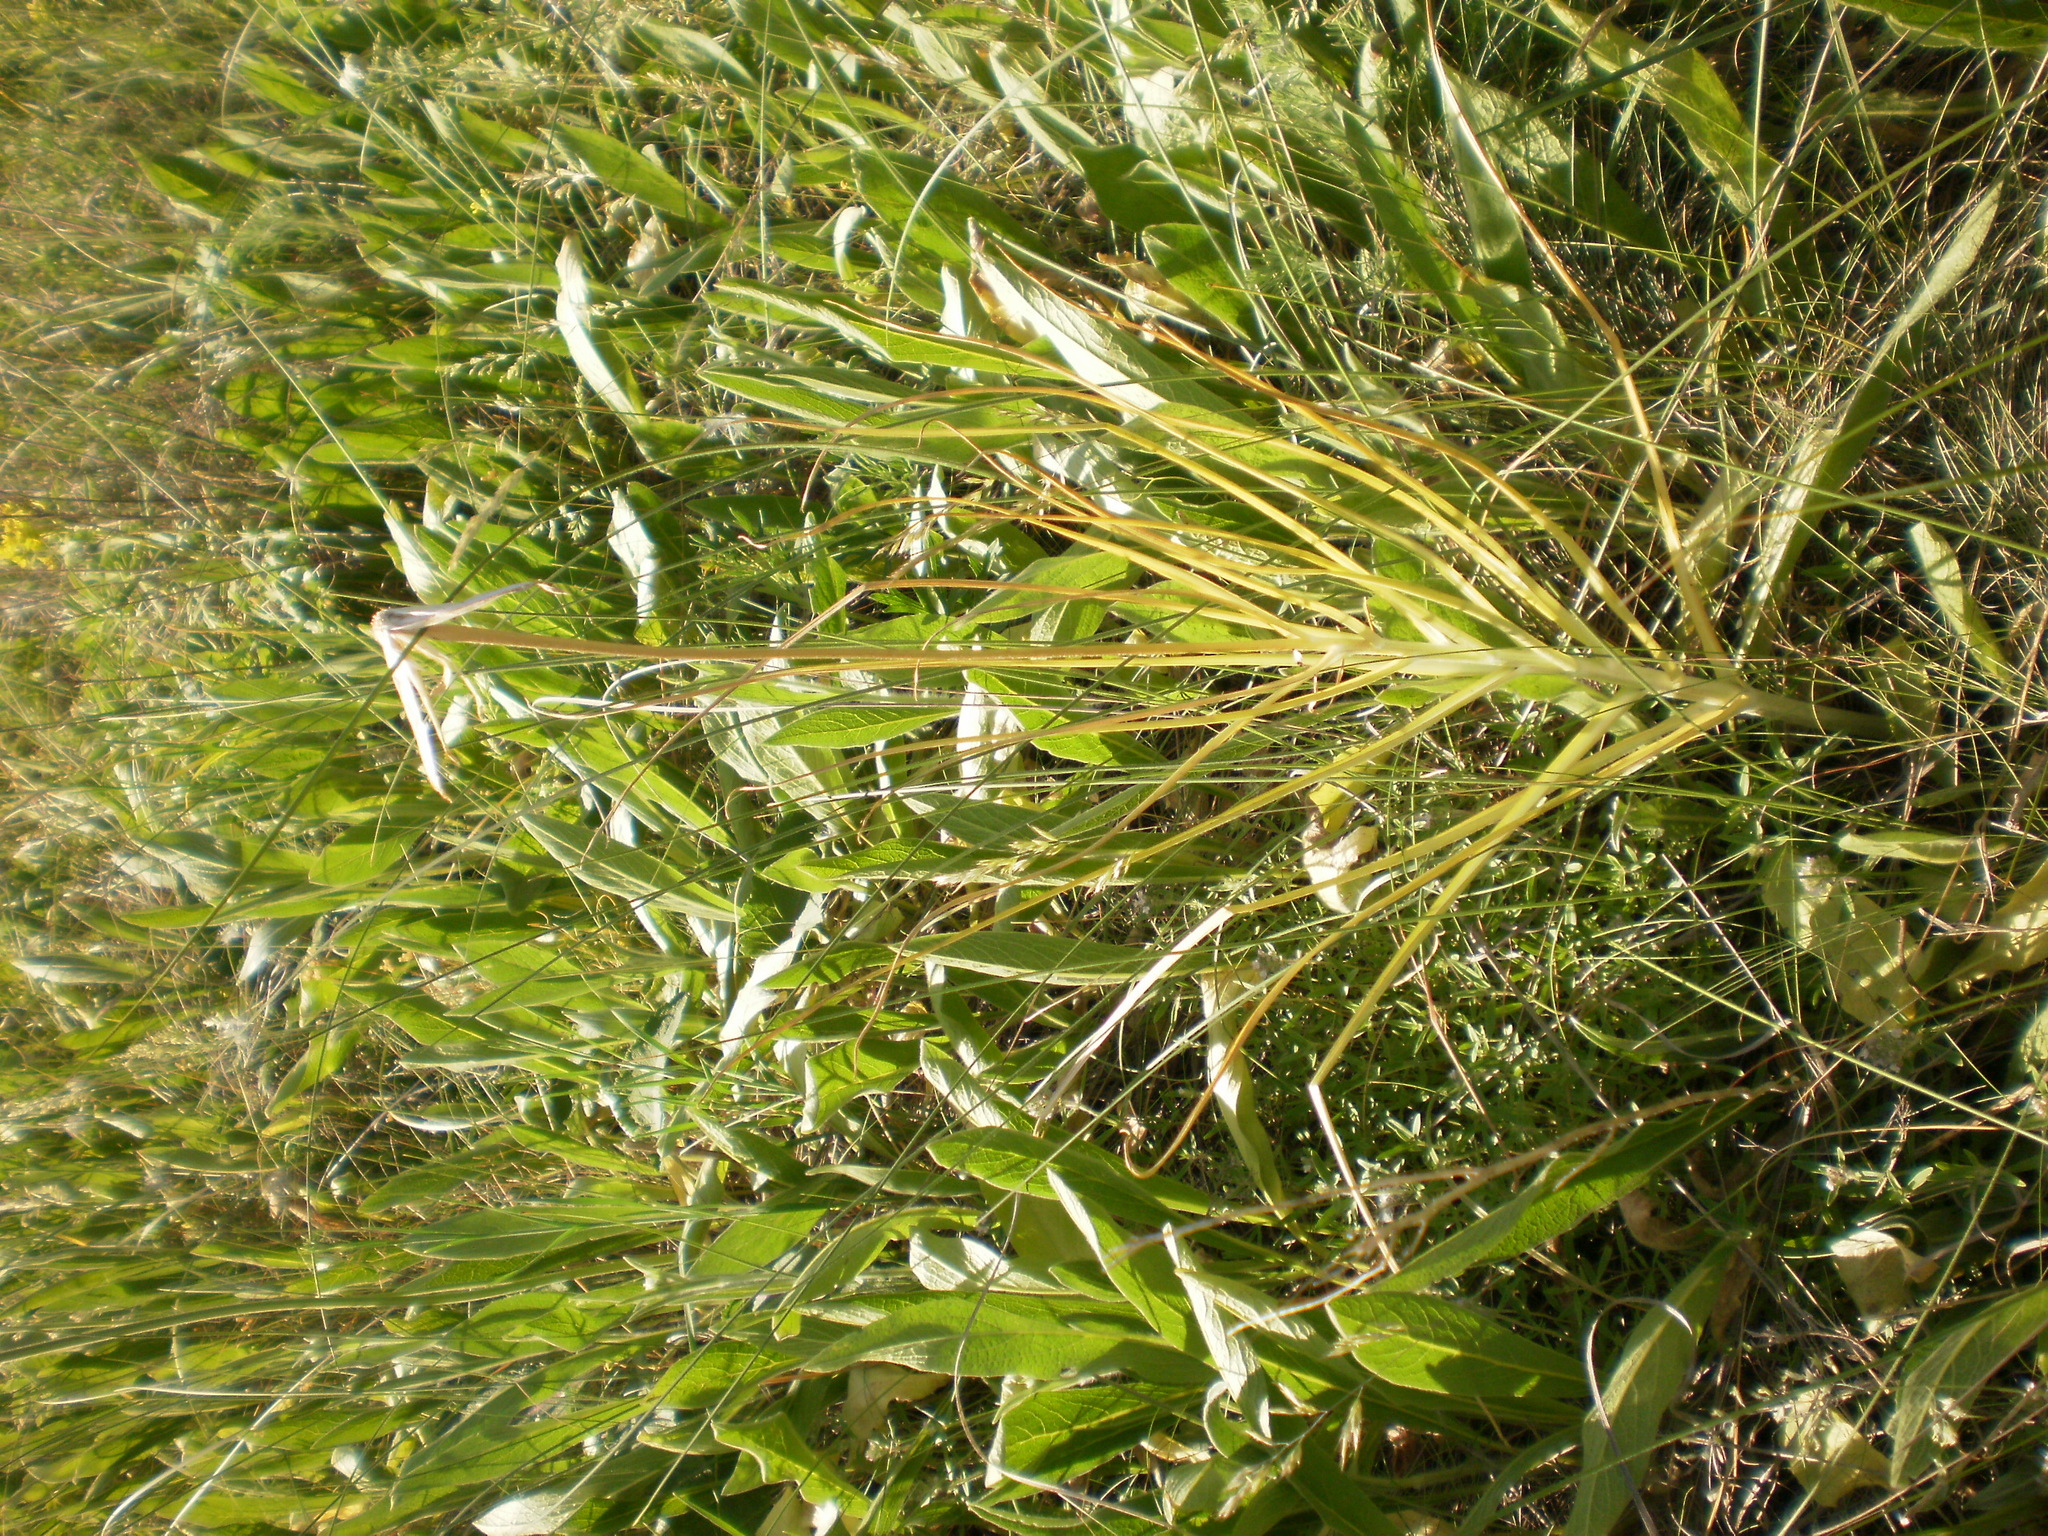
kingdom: Plantae
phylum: Tracheophyta
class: Magnoliopsida
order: Asterales
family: Asteraceae
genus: Pseudopodospermum
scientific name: Pseudopodospermum strictum
